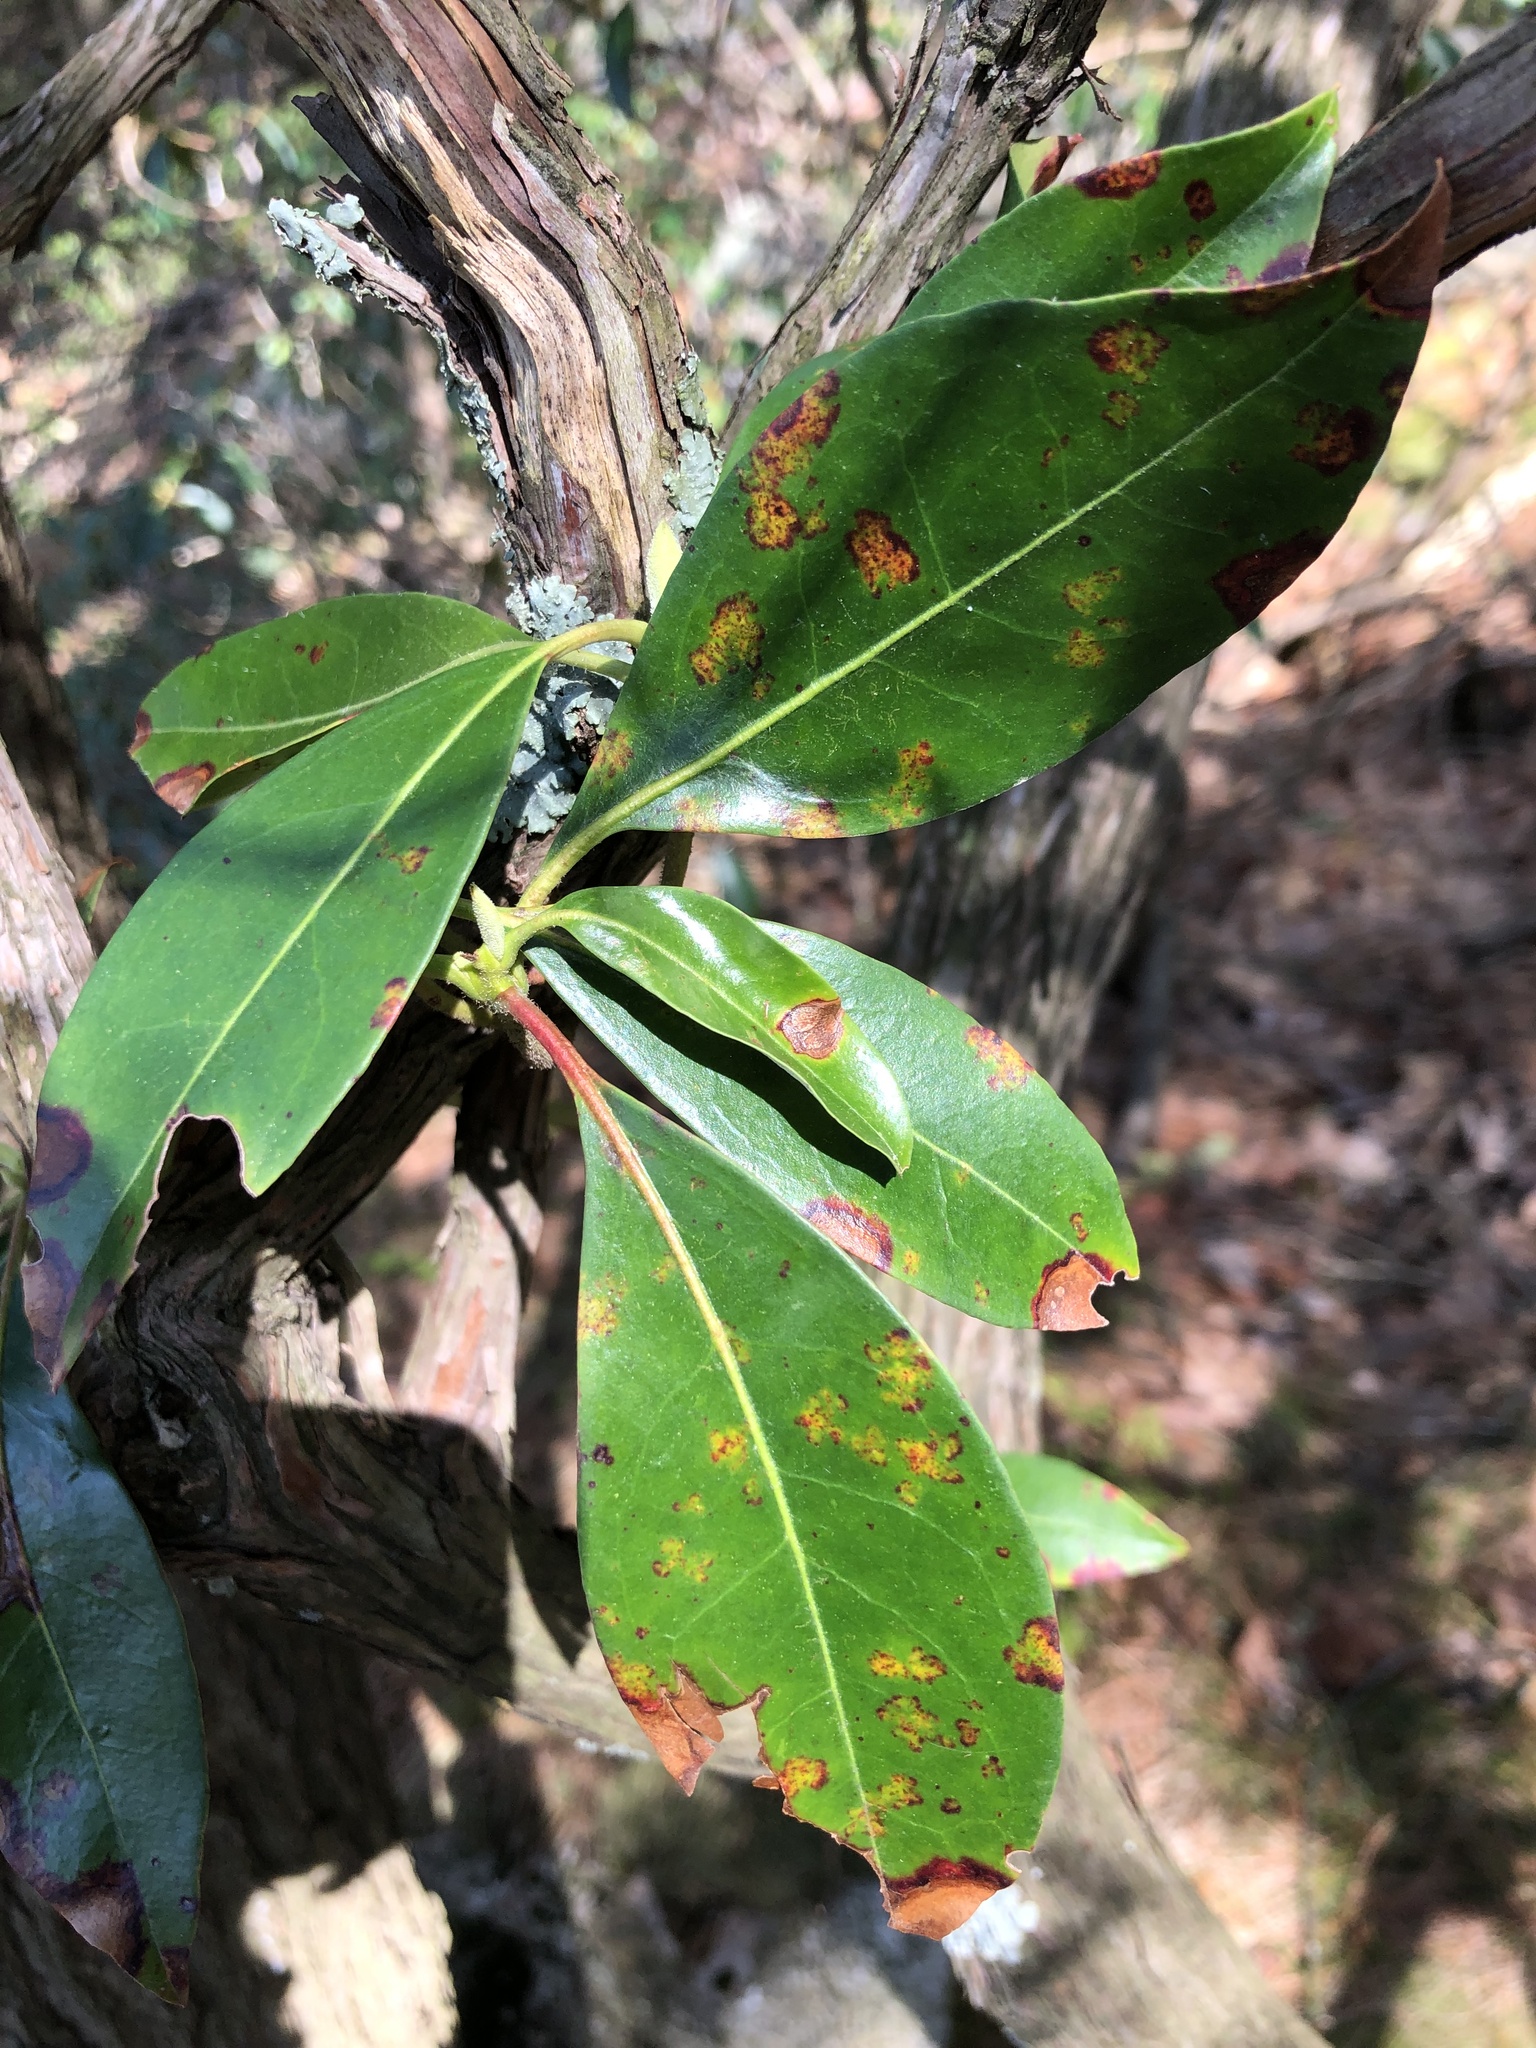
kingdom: Plantae
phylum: Tracheophyta
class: Magnoliopsida
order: Ericales
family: Ericaceae
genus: Kalmia
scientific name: Kalmia latifolia
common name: Mountain-laurel
